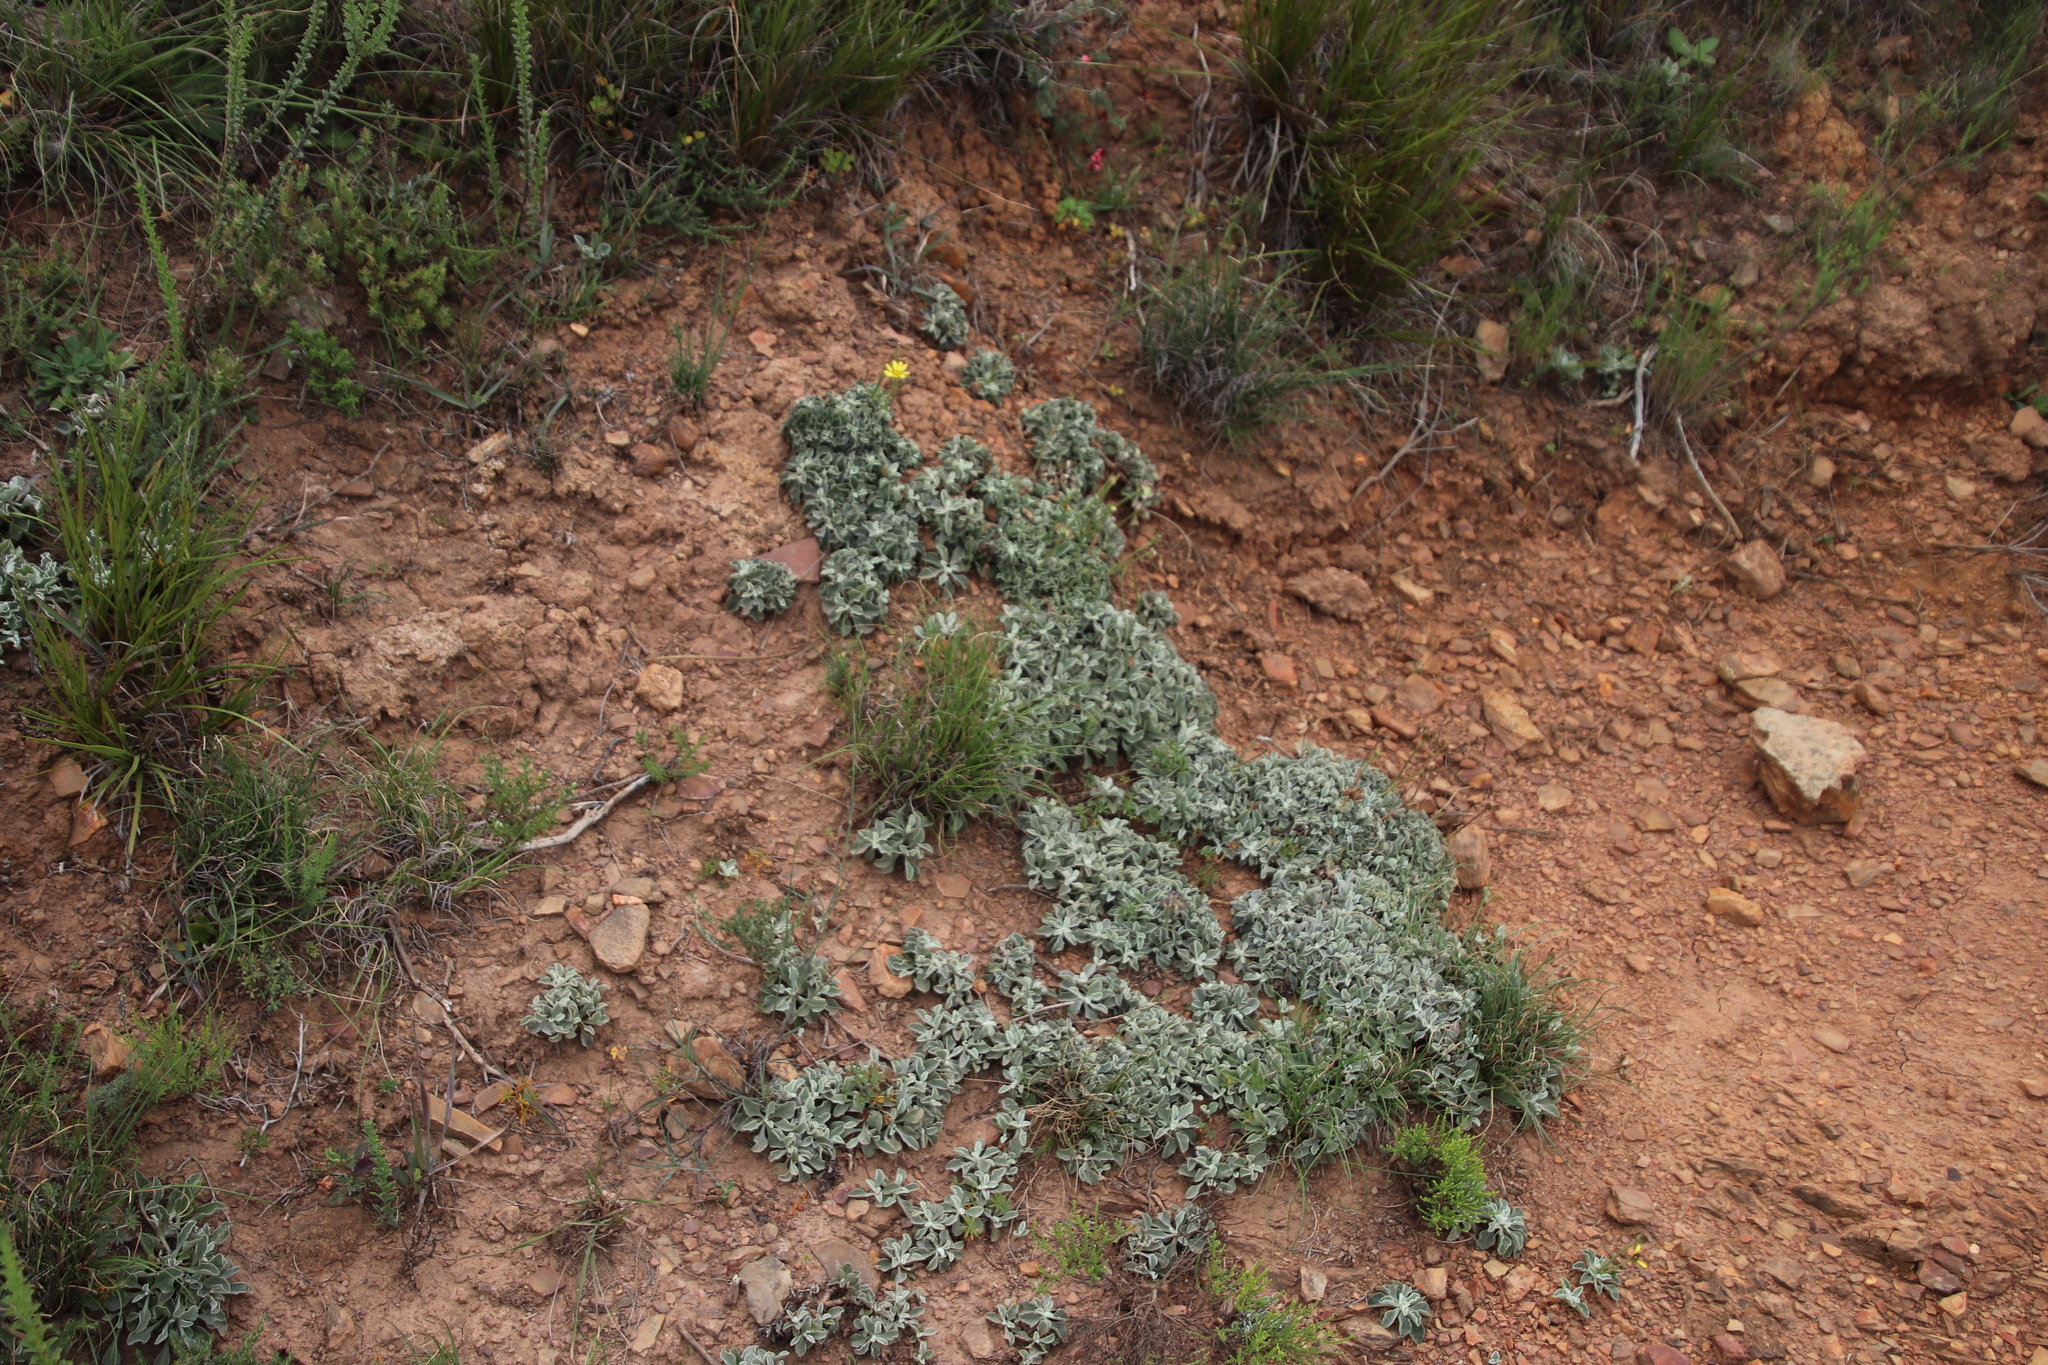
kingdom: Plantae
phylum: Tracheophyta
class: Magnoliopsida
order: Asterales
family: Asteraceae
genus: Osteospermum
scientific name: Osteospermum tomentosum
